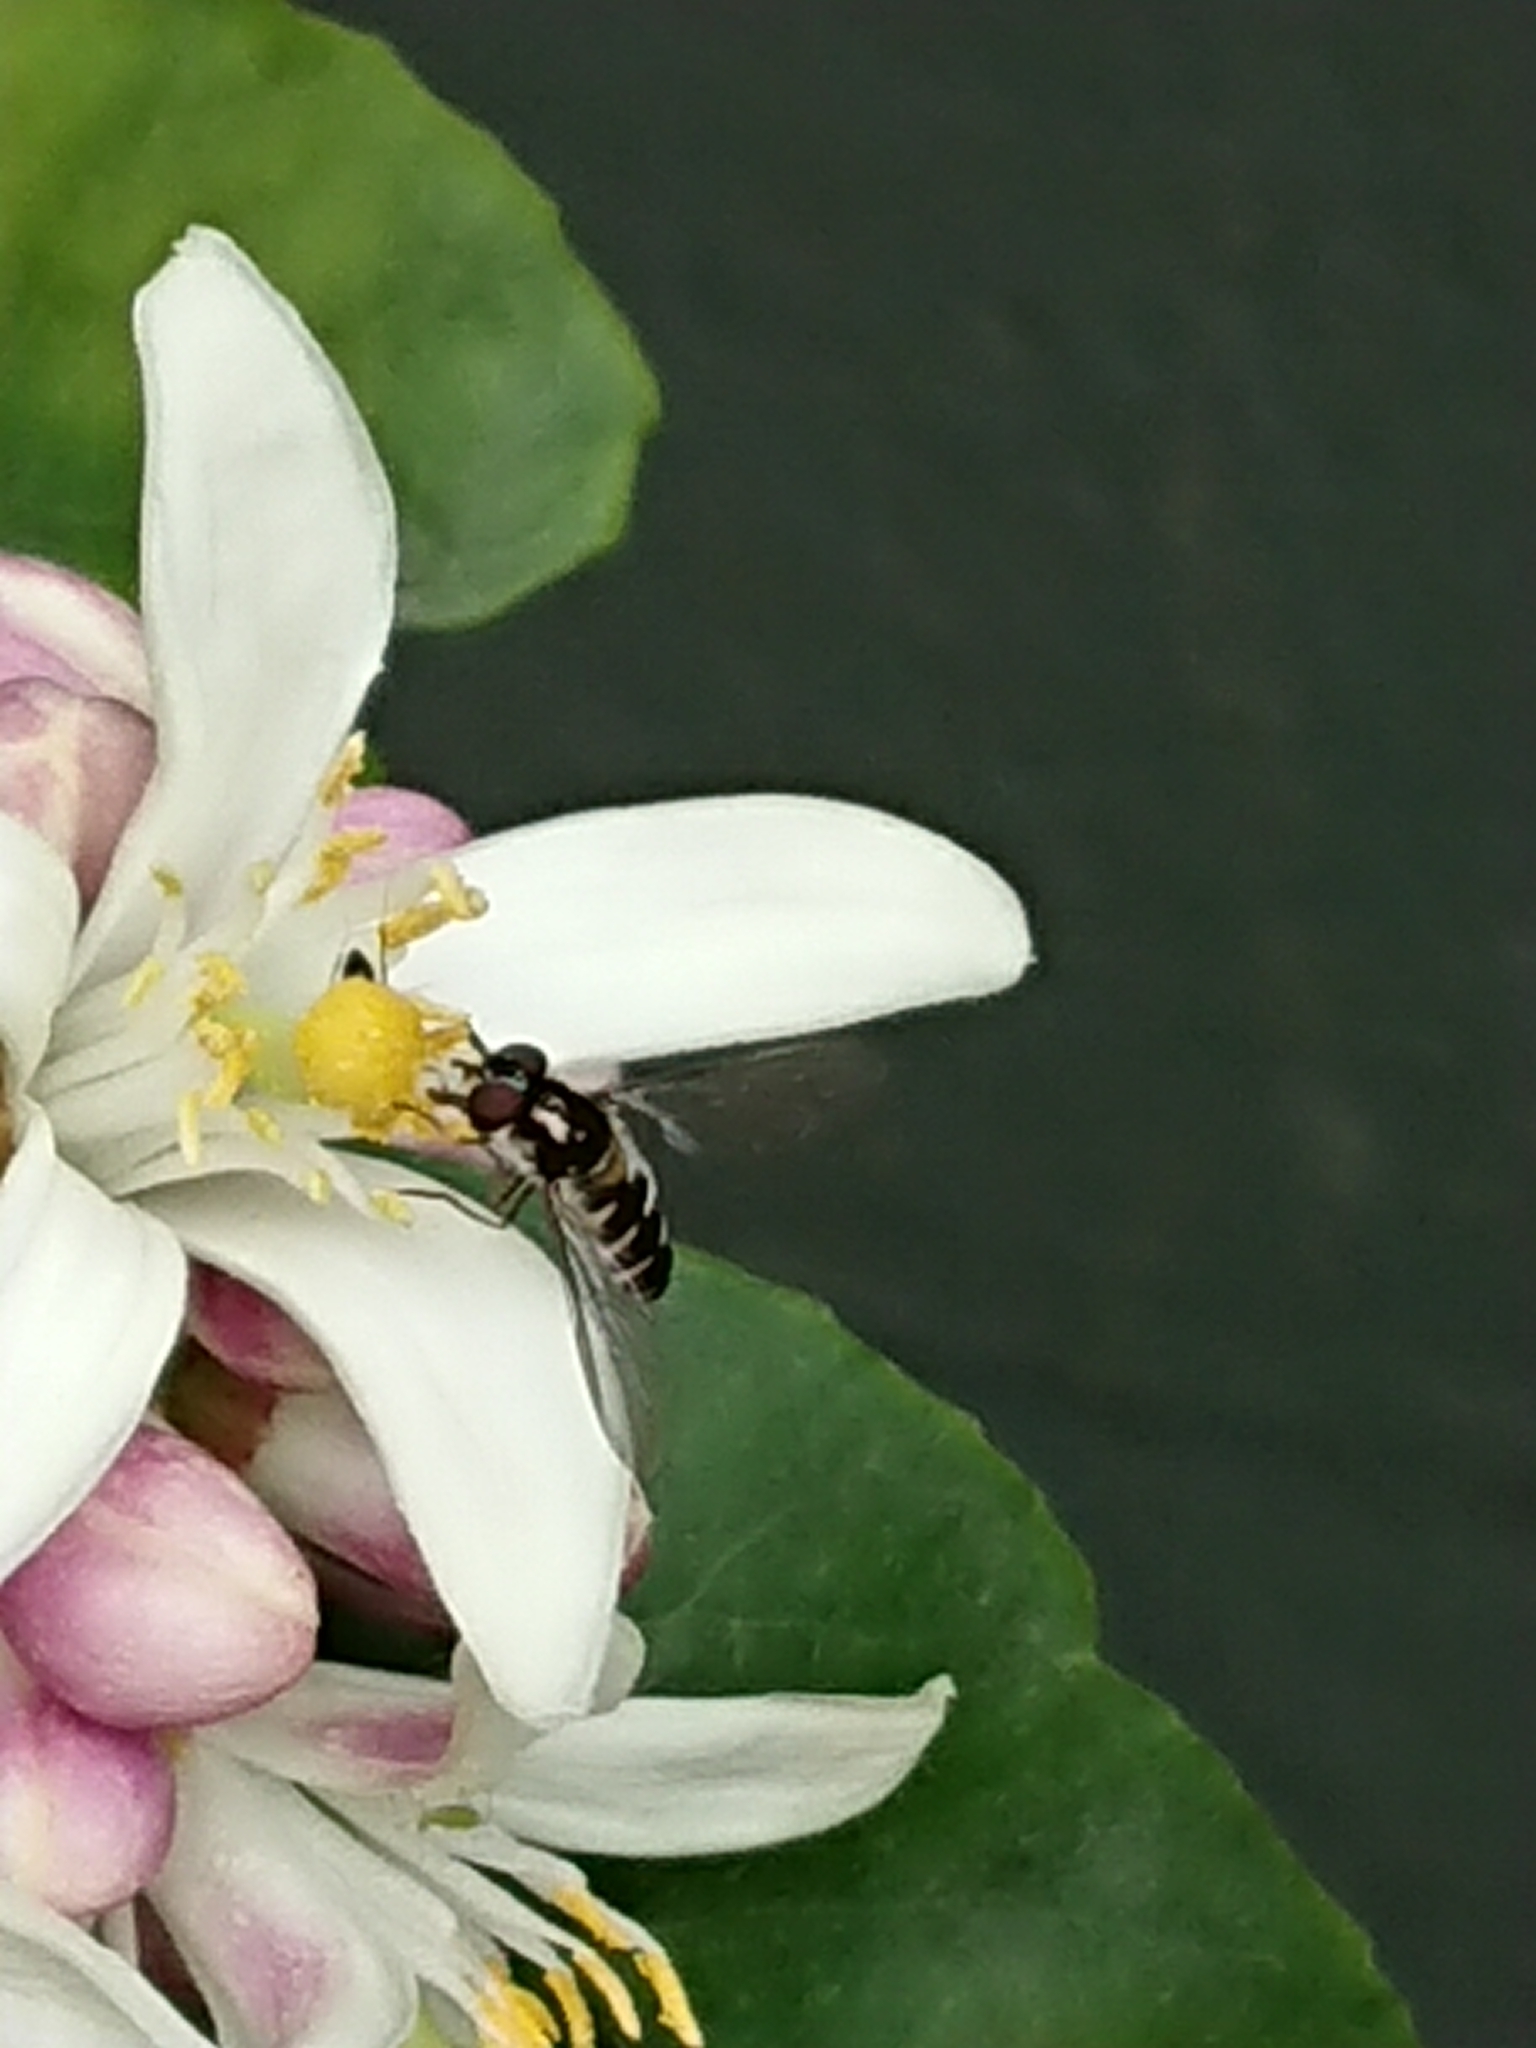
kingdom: Animalia
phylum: Arthropoda
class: Insecta
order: Diptera
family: Syrphidae
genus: Melangyna
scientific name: Melangyna novaezelandiae
